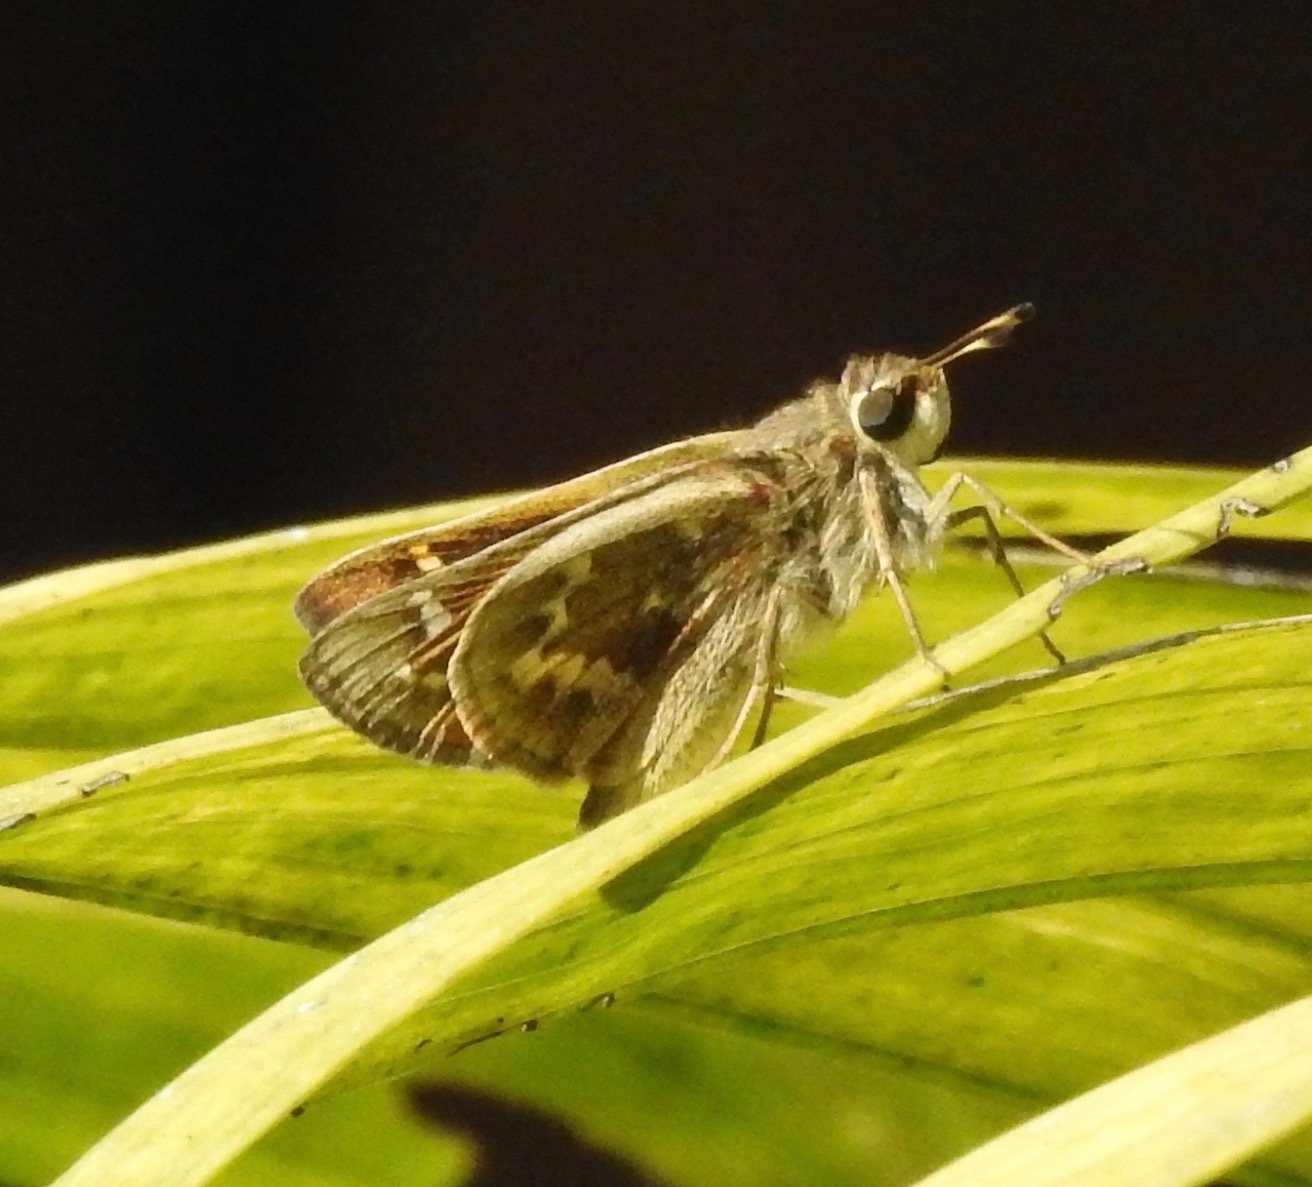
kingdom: Animalia
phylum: Arthropoda
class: Insecta
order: Lepidoptera
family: Hesperiidae
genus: Atalopedes
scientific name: Atalopedes
